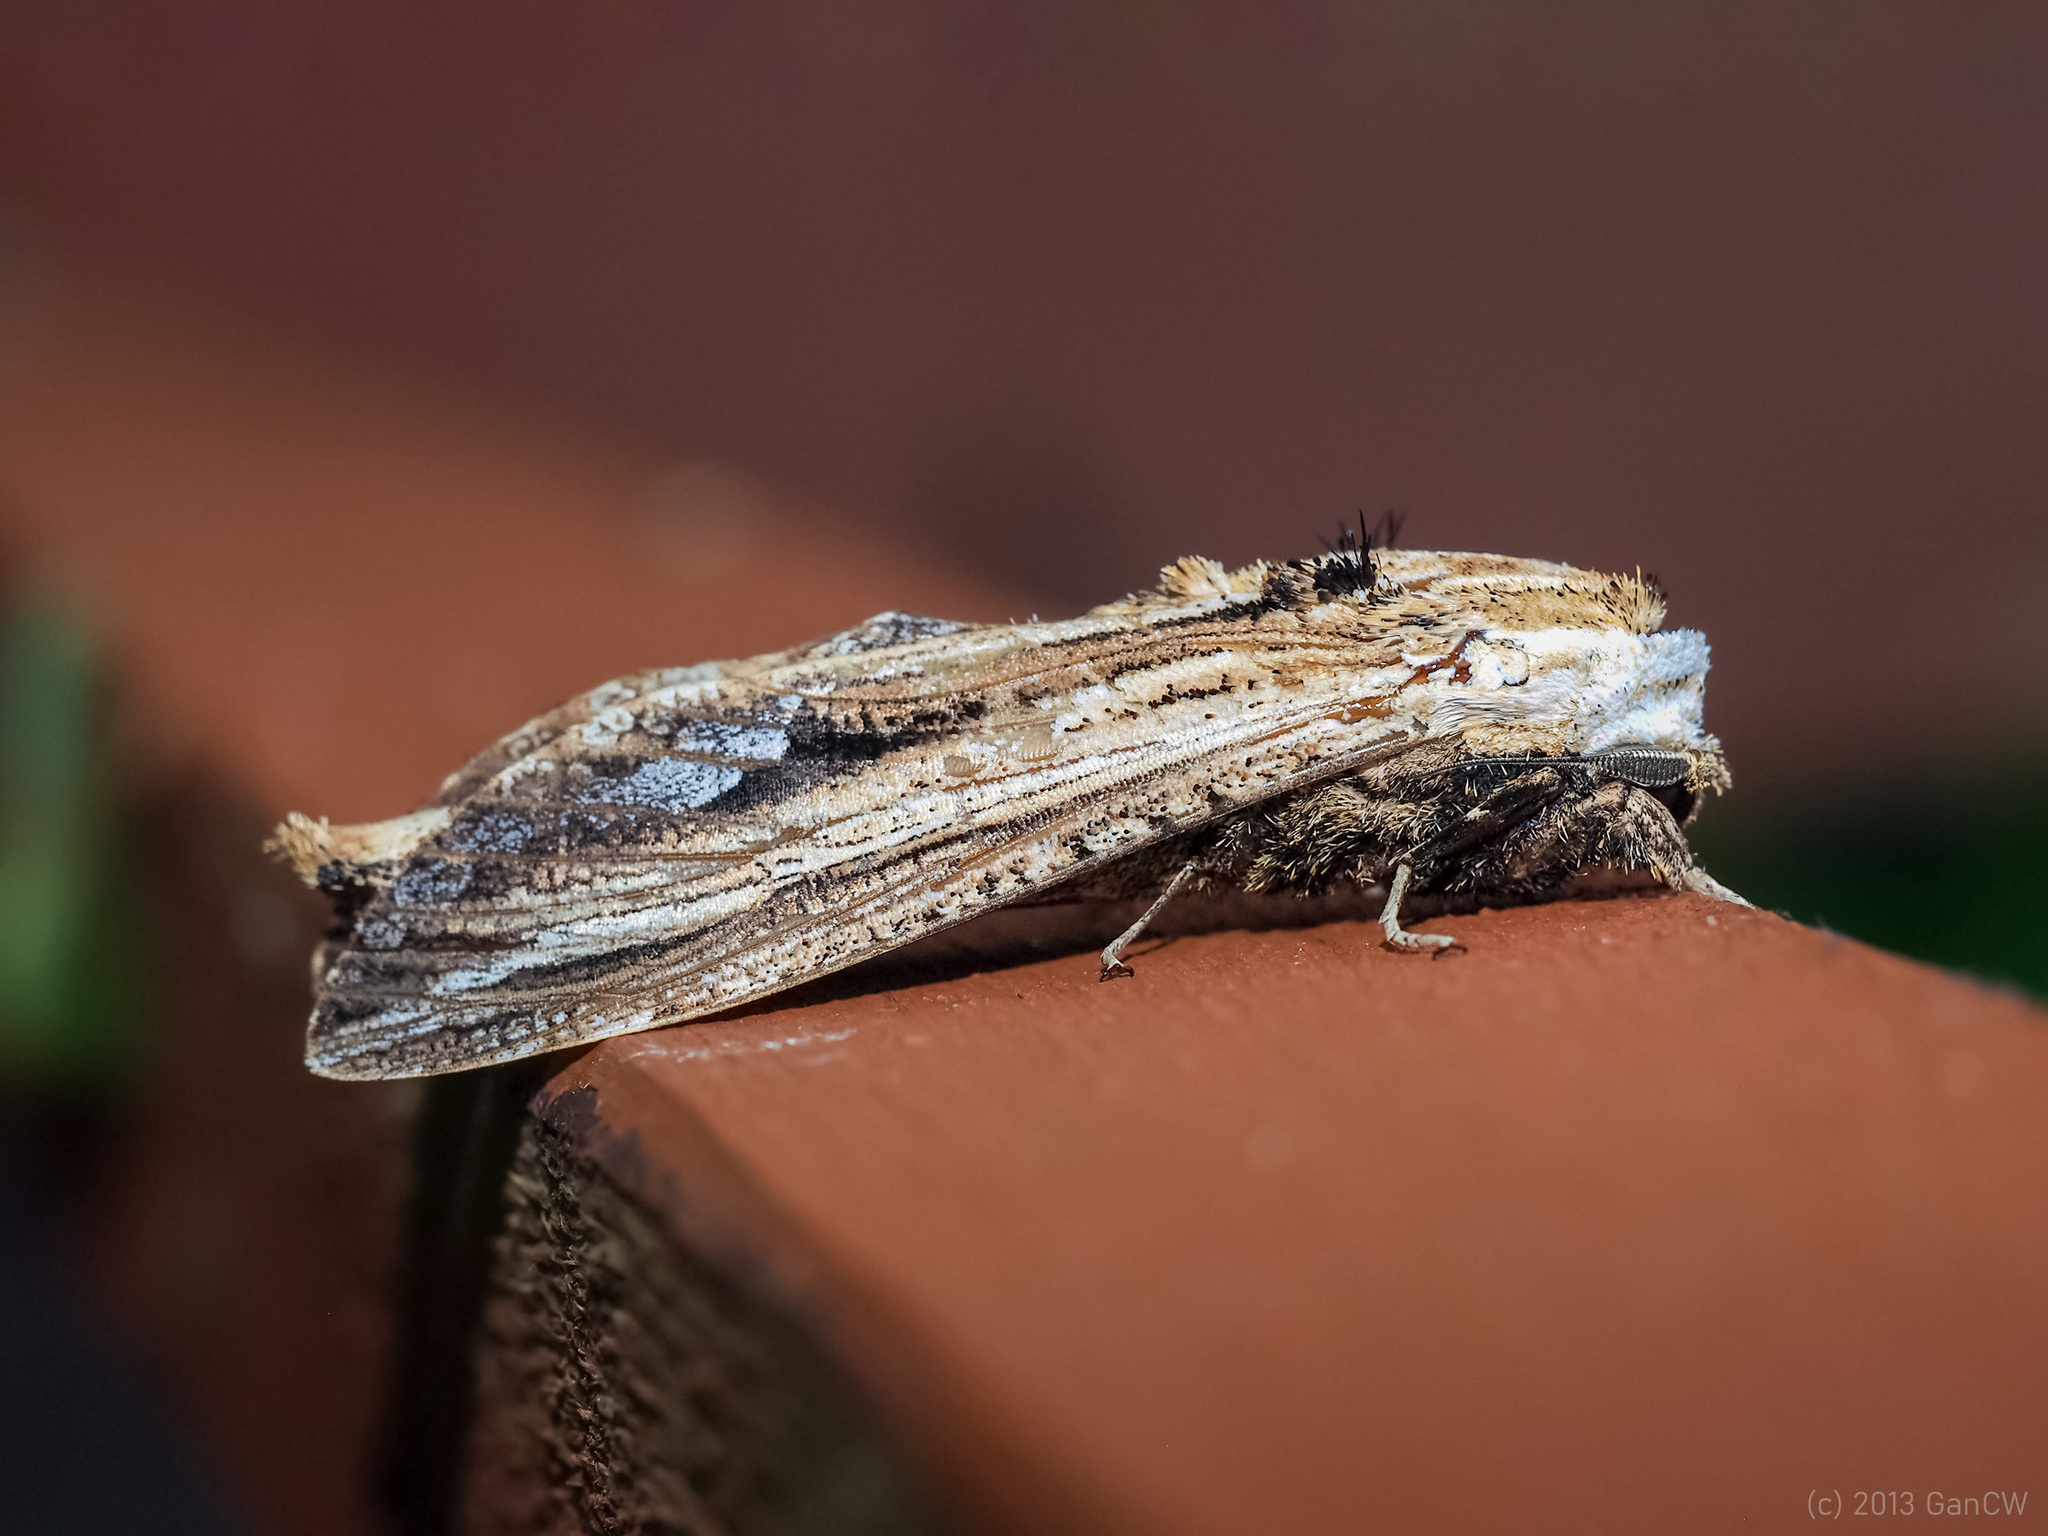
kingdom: Animalia
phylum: Arthropoda
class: Insecta
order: Lepidoptera
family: Cossidae
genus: Duomitus
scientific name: Duomitus ceramicus
